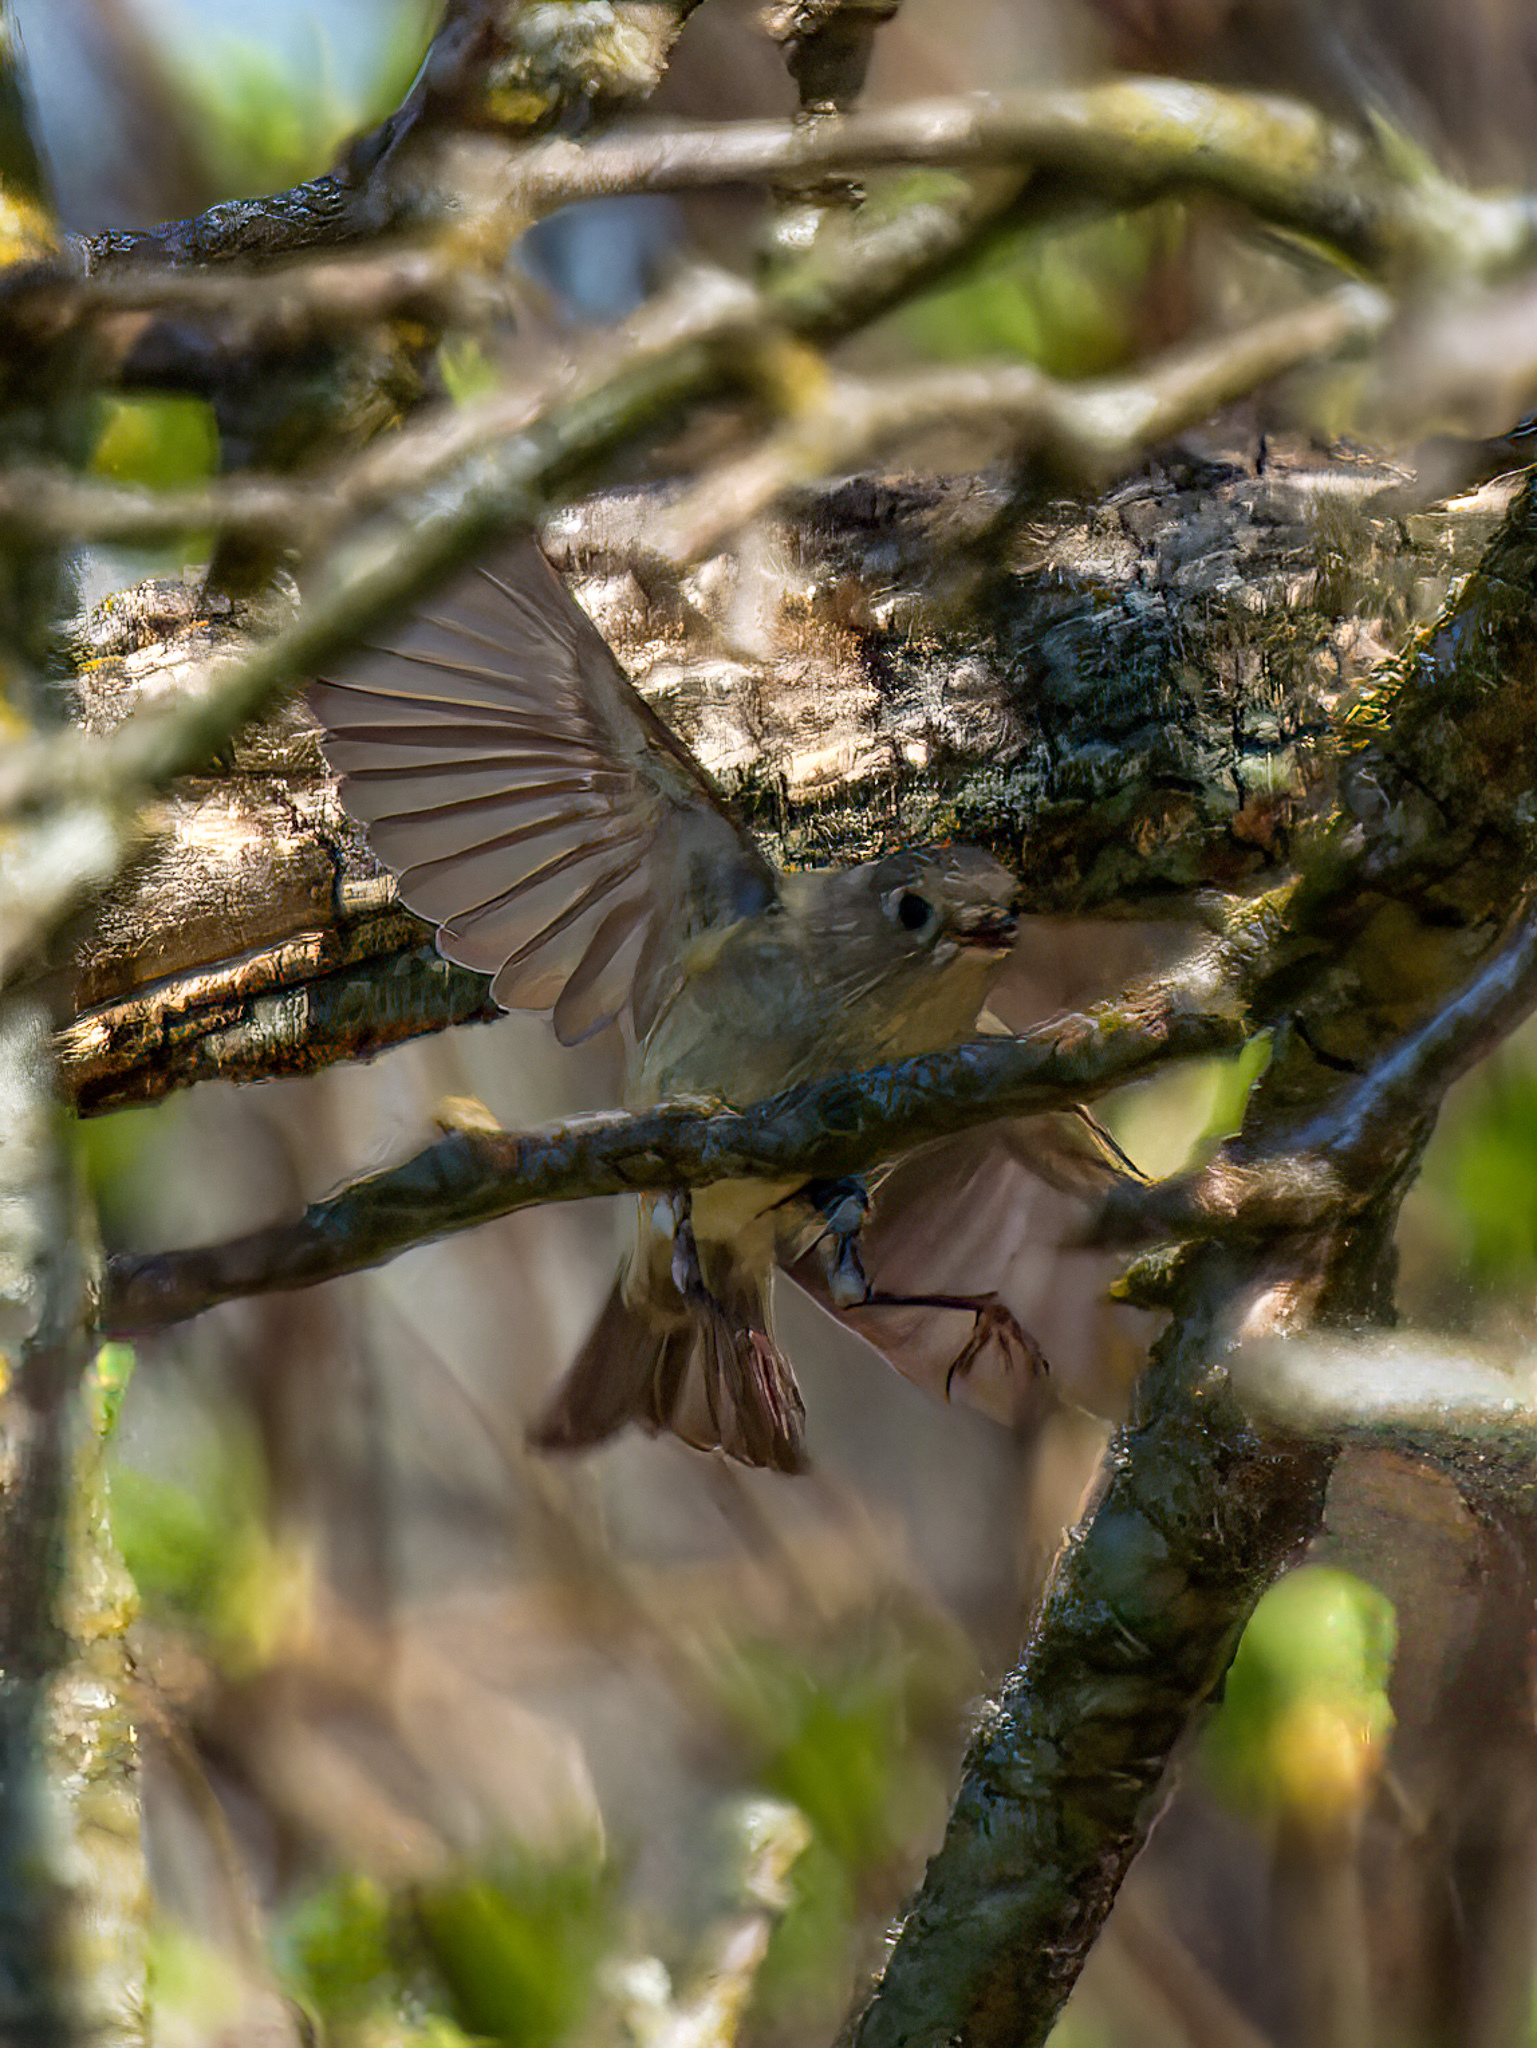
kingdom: Animalia
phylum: Chordata
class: Aves
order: Passeriformes
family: Regulidae
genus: Regulus
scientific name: Regulus calendula
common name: Ruby-crowned kinglet
